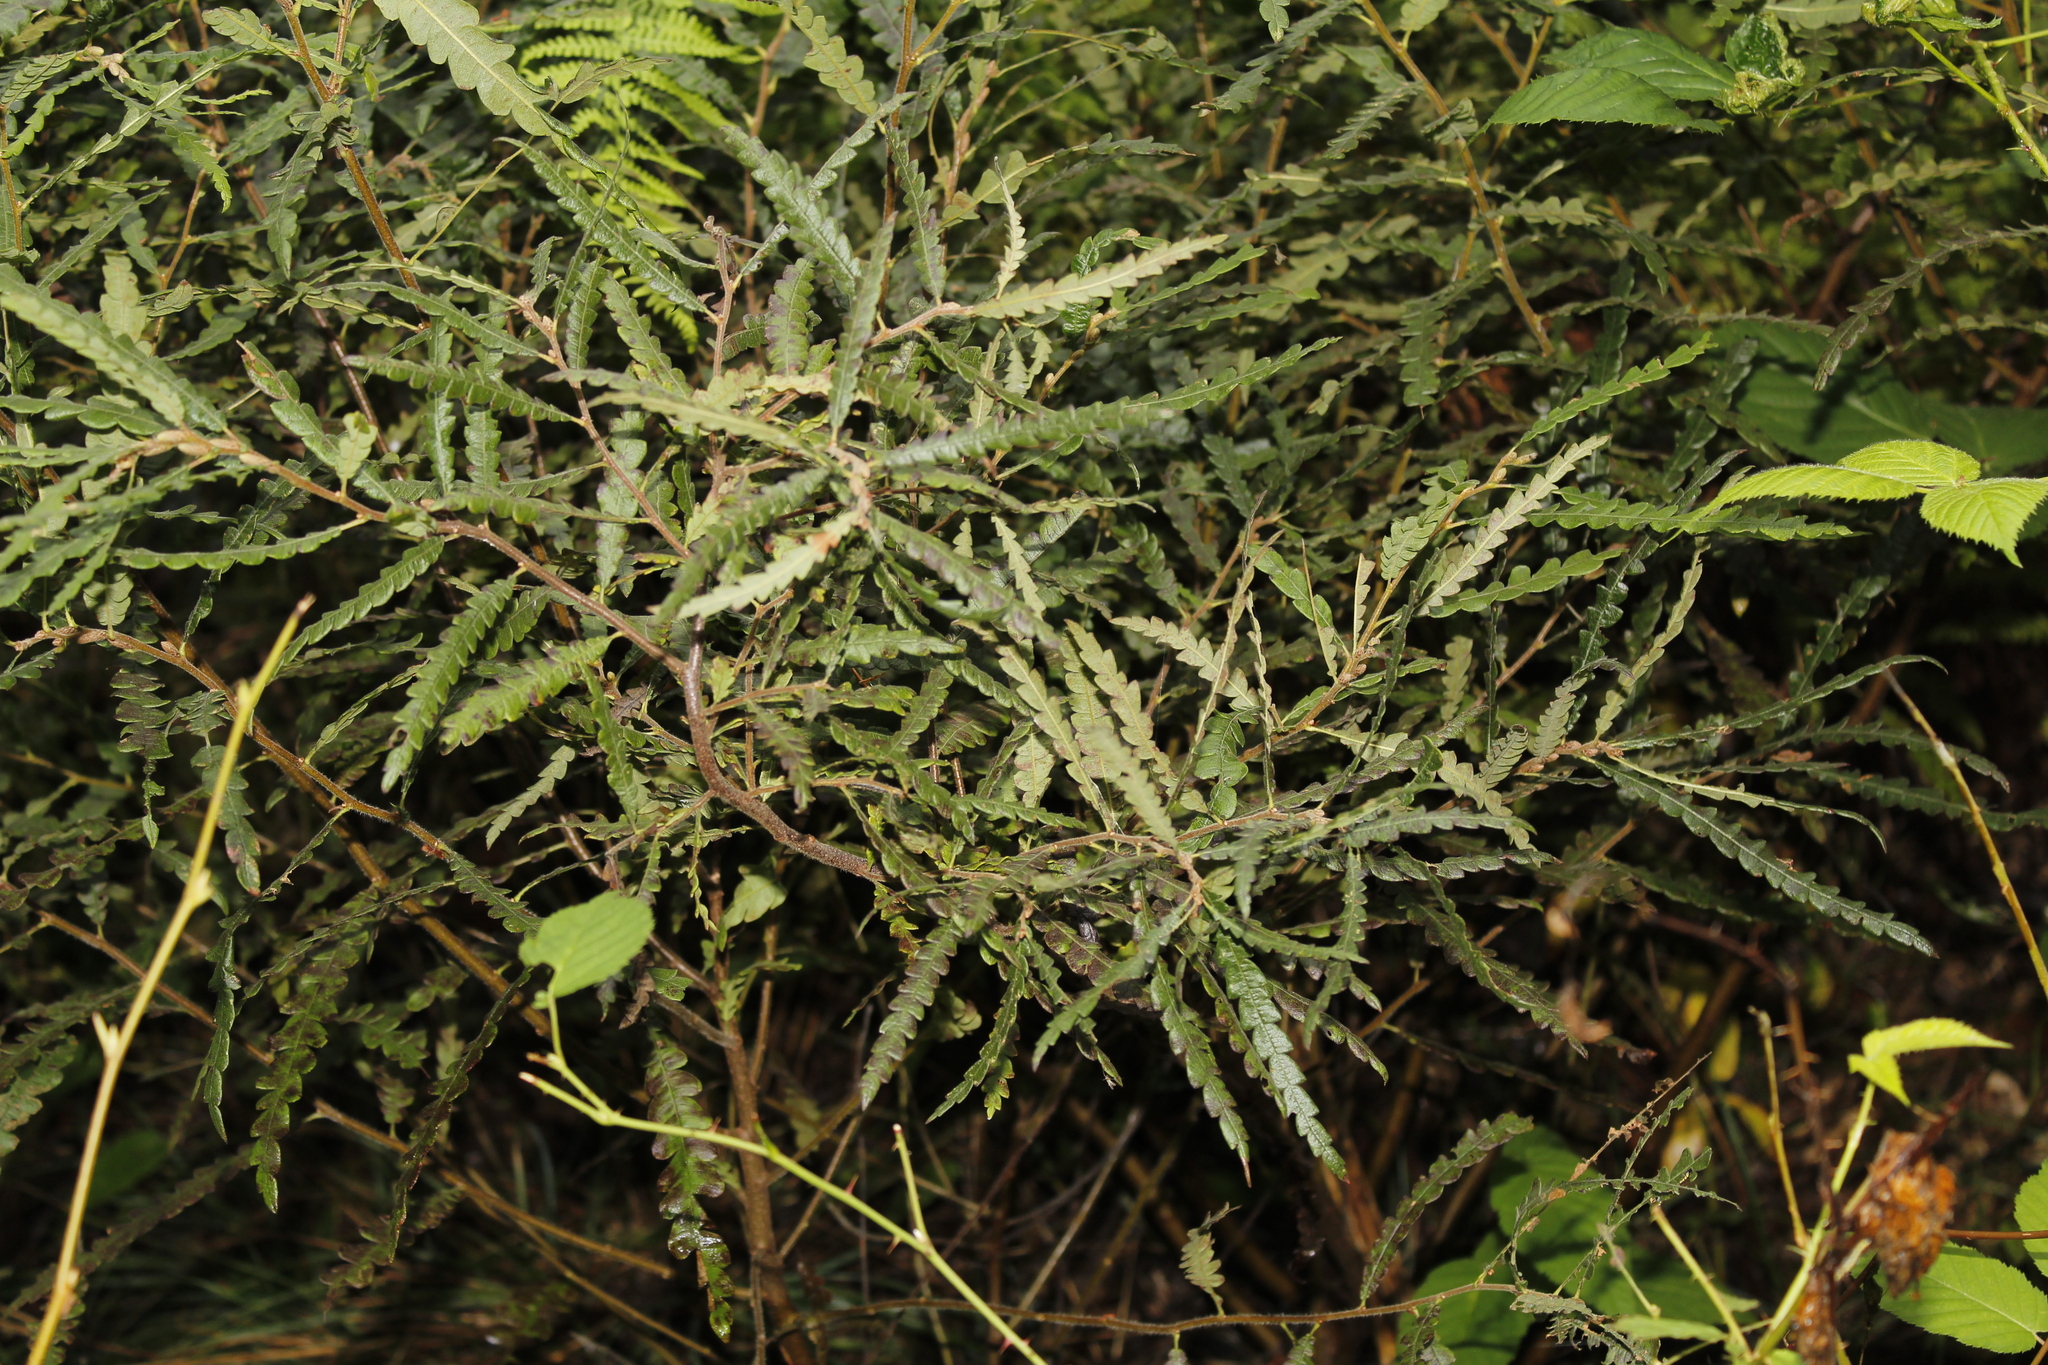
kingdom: Plantae
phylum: Tracheophyta
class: Magnoliopsida
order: Fagales
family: Myricaceae
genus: Comptonia
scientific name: Comptonia peregrina
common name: Sweet-fern
